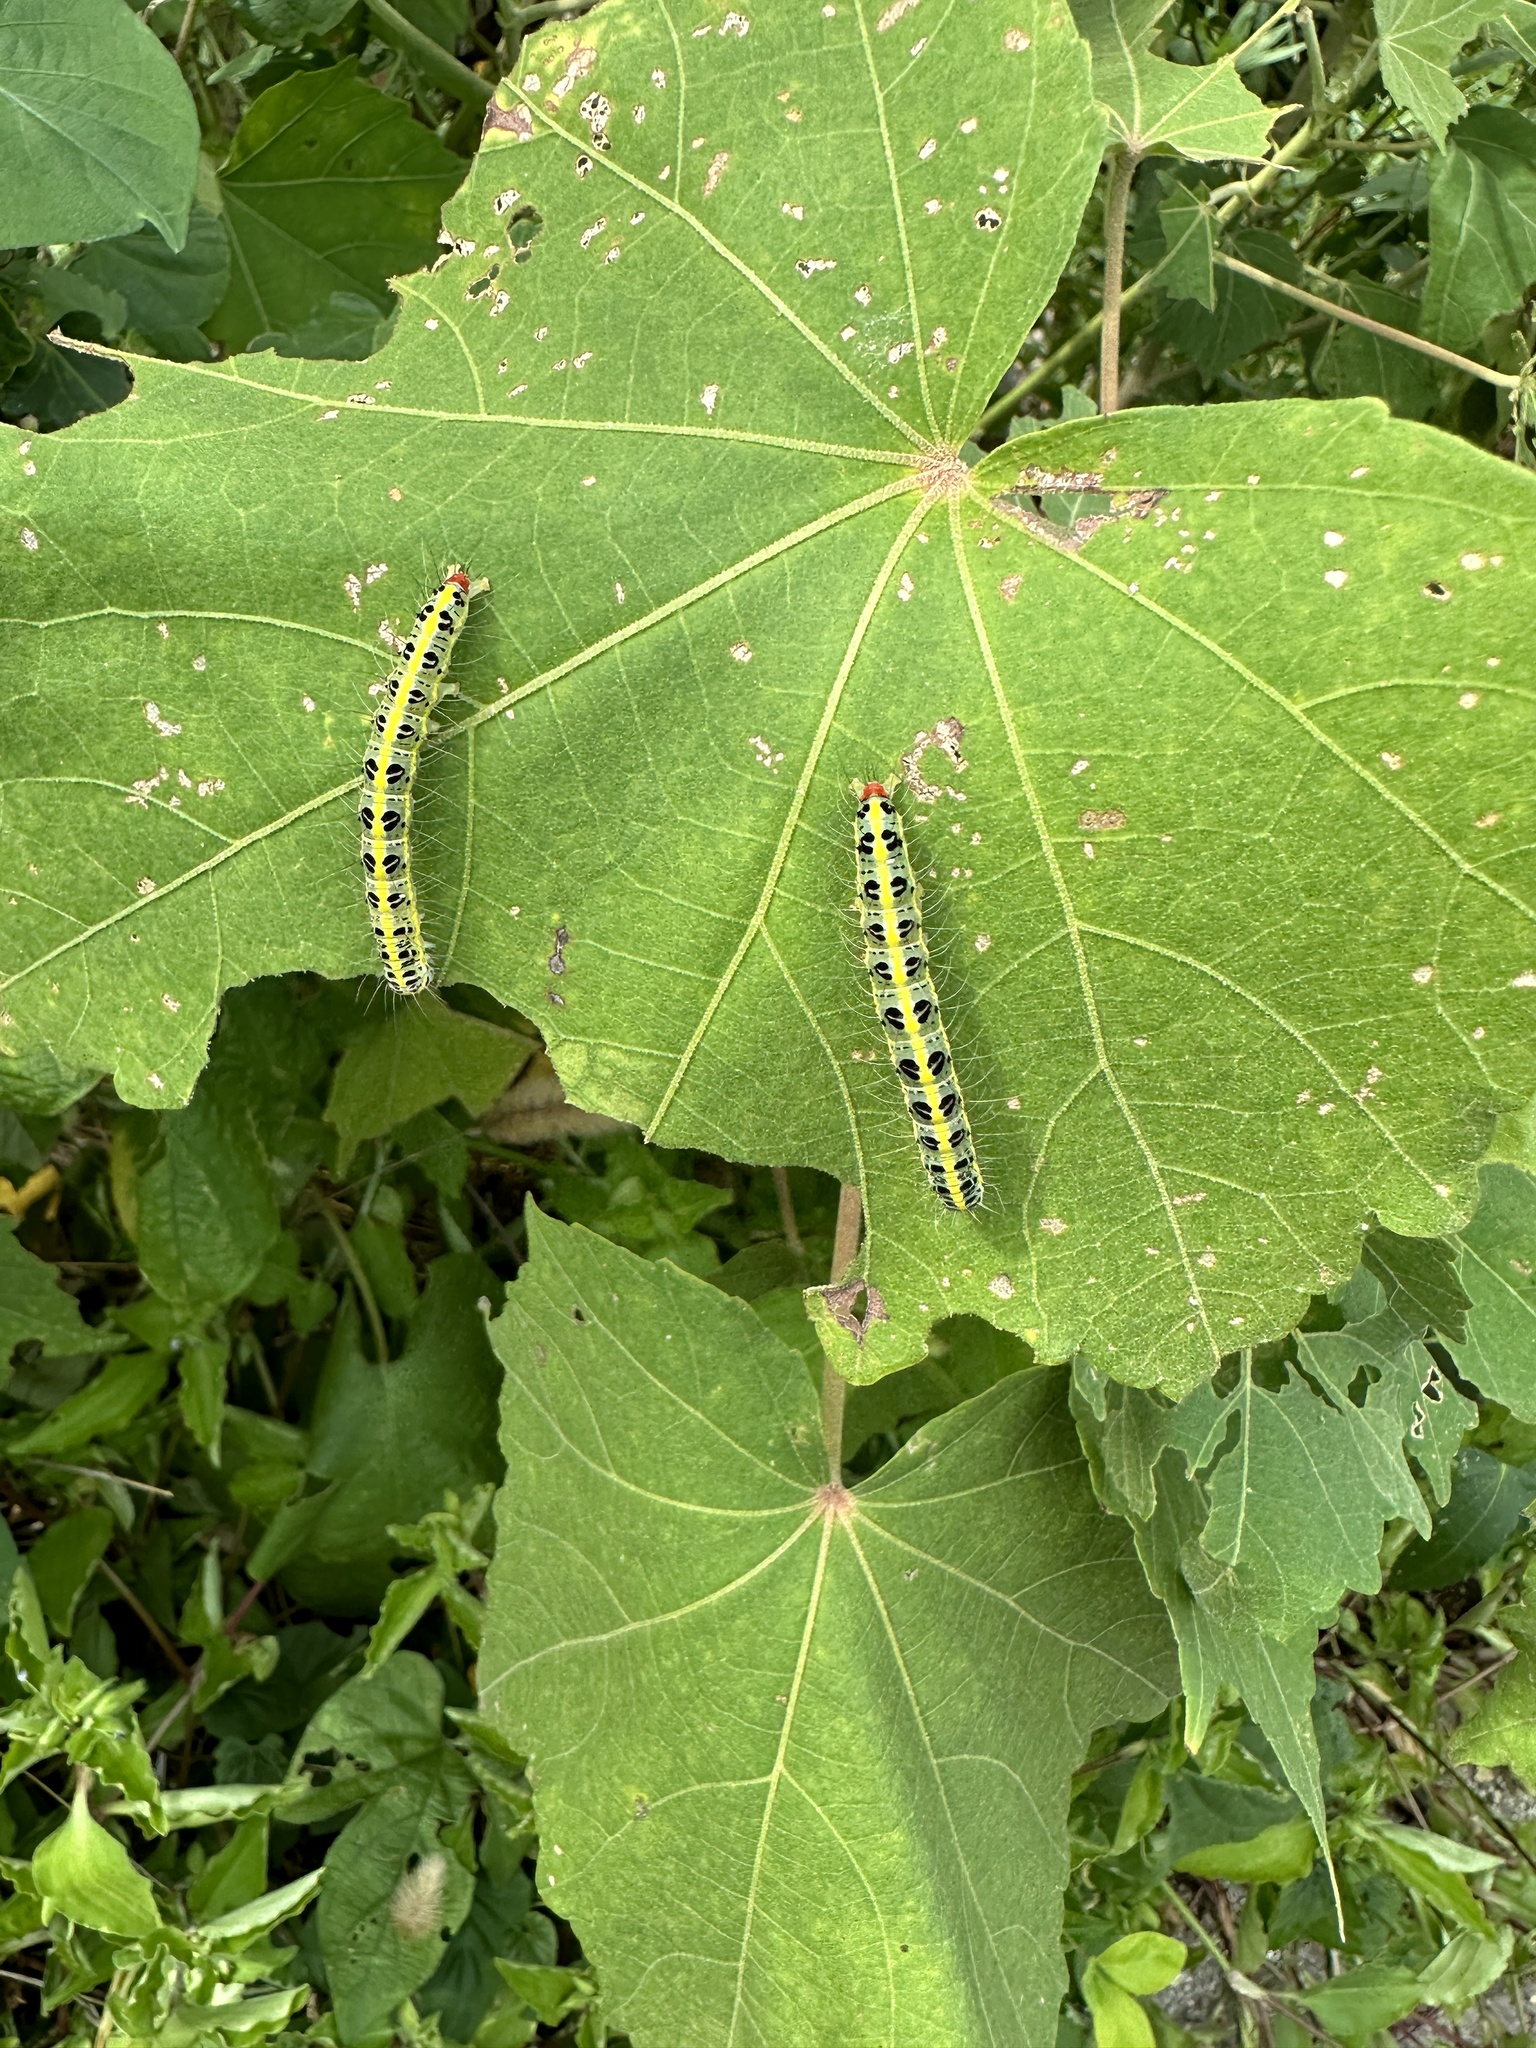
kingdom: Animalia
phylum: Arthropoda
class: Insecta
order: Lepidoptera
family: Nolidae
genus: Xanthodes
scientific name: Xanthodes transversa
